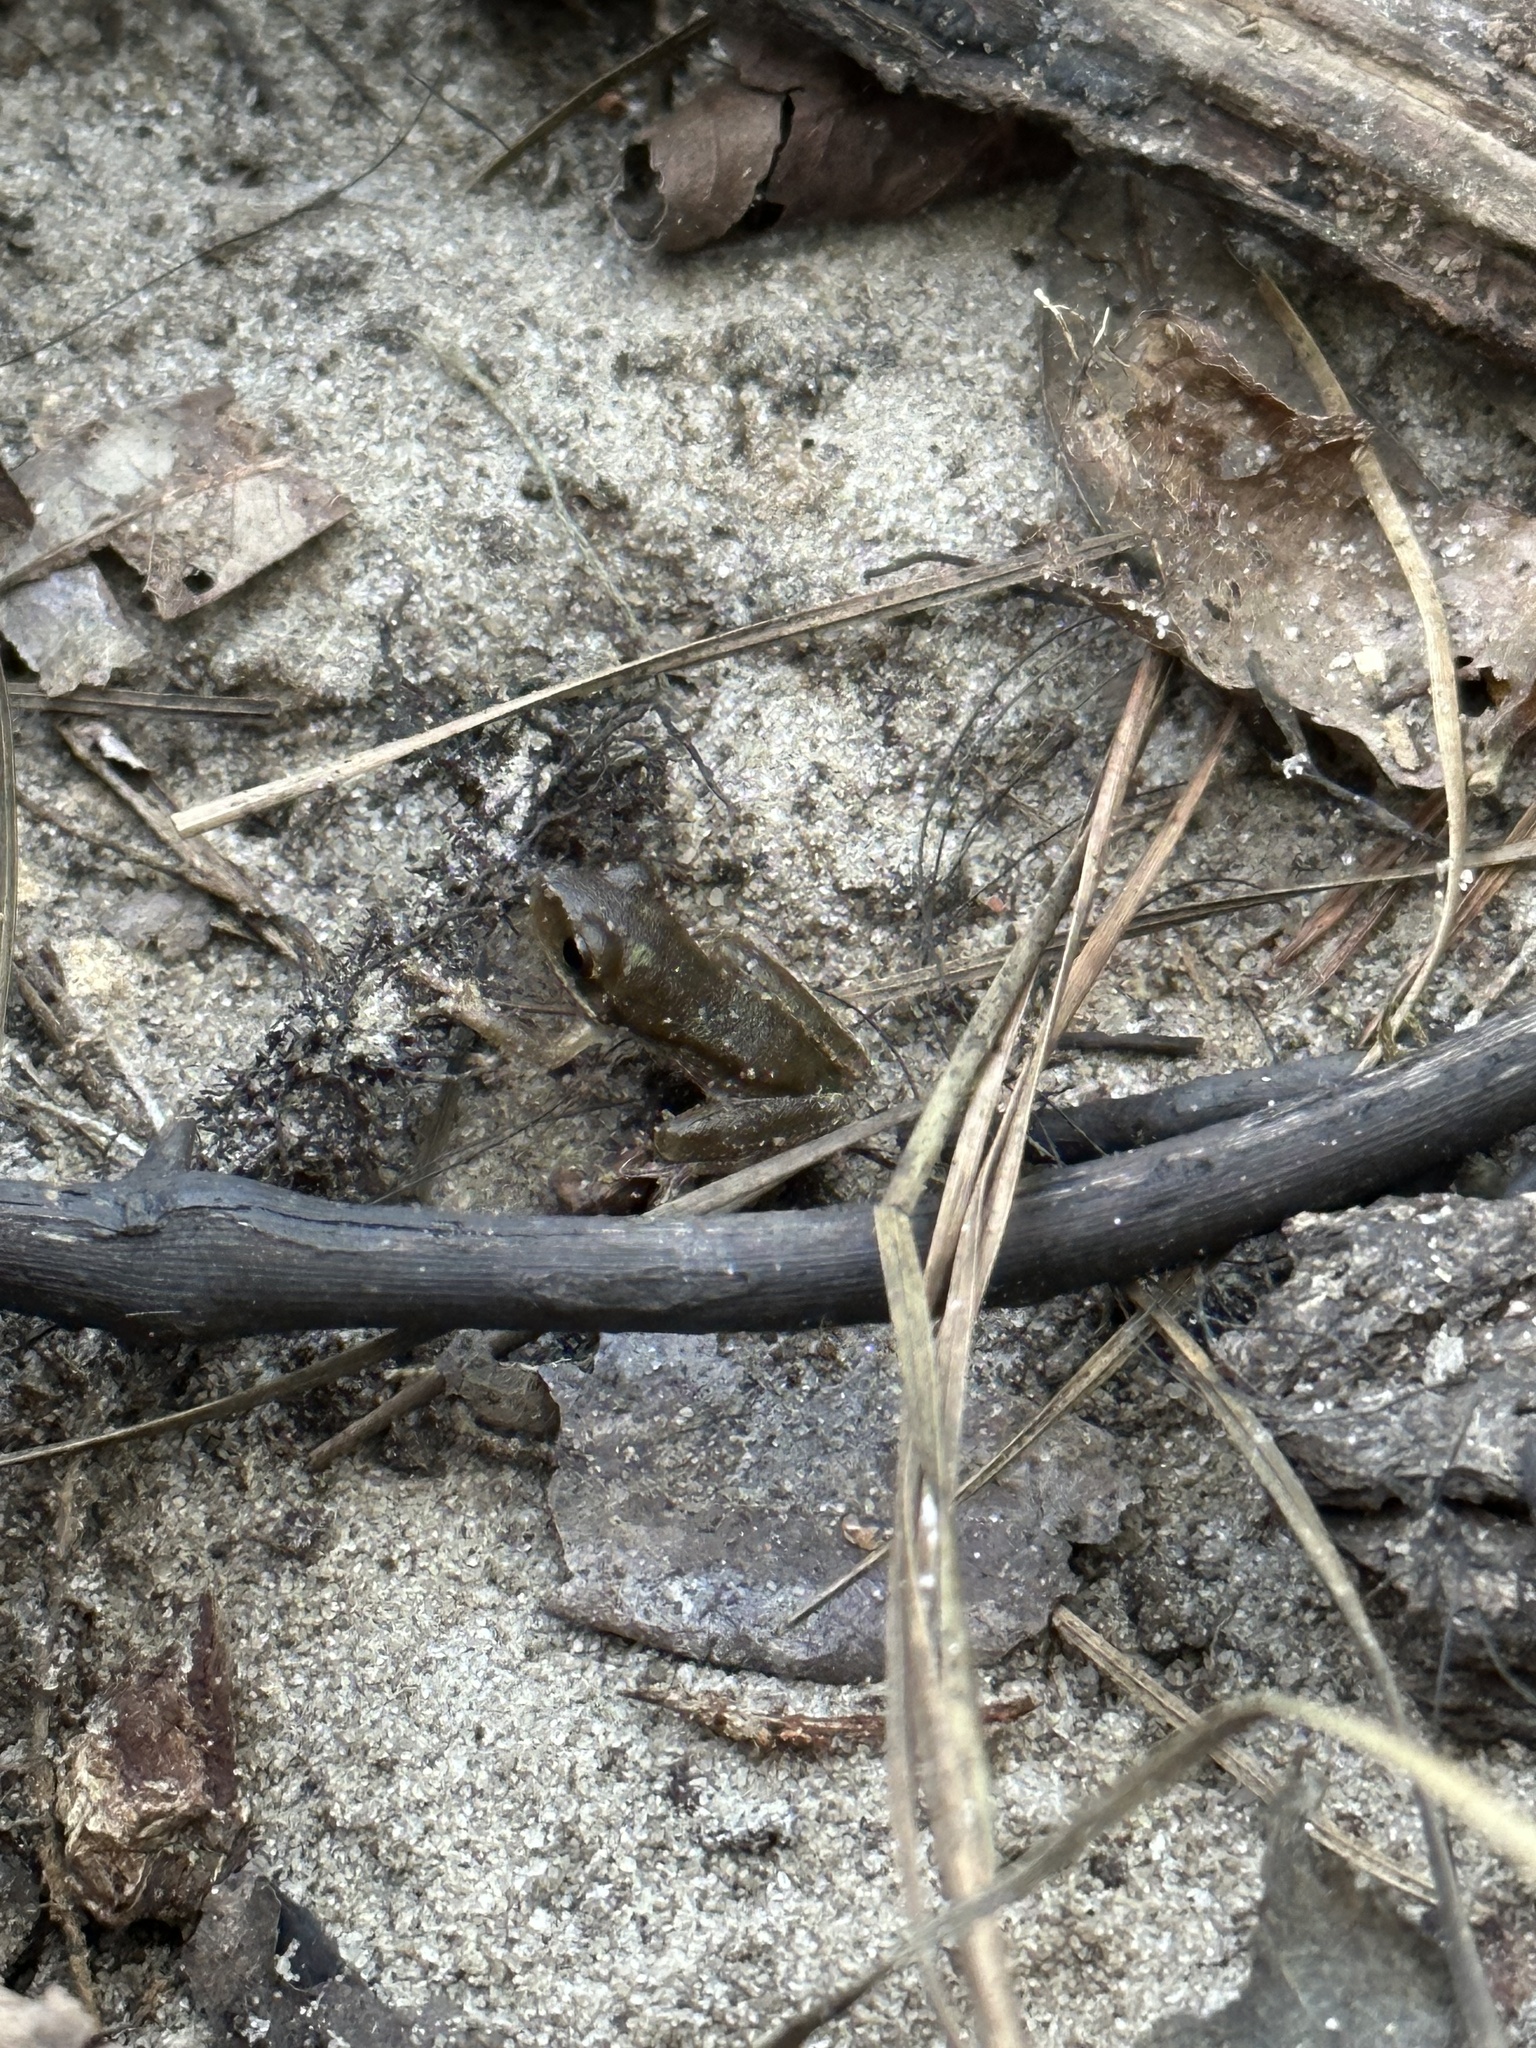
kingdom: Animalia
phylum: Chordata
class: Amphibia
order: Anura
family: Hylidae
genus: Pseudacris
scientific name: Pseudacris ocularis
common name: Little grass frog
